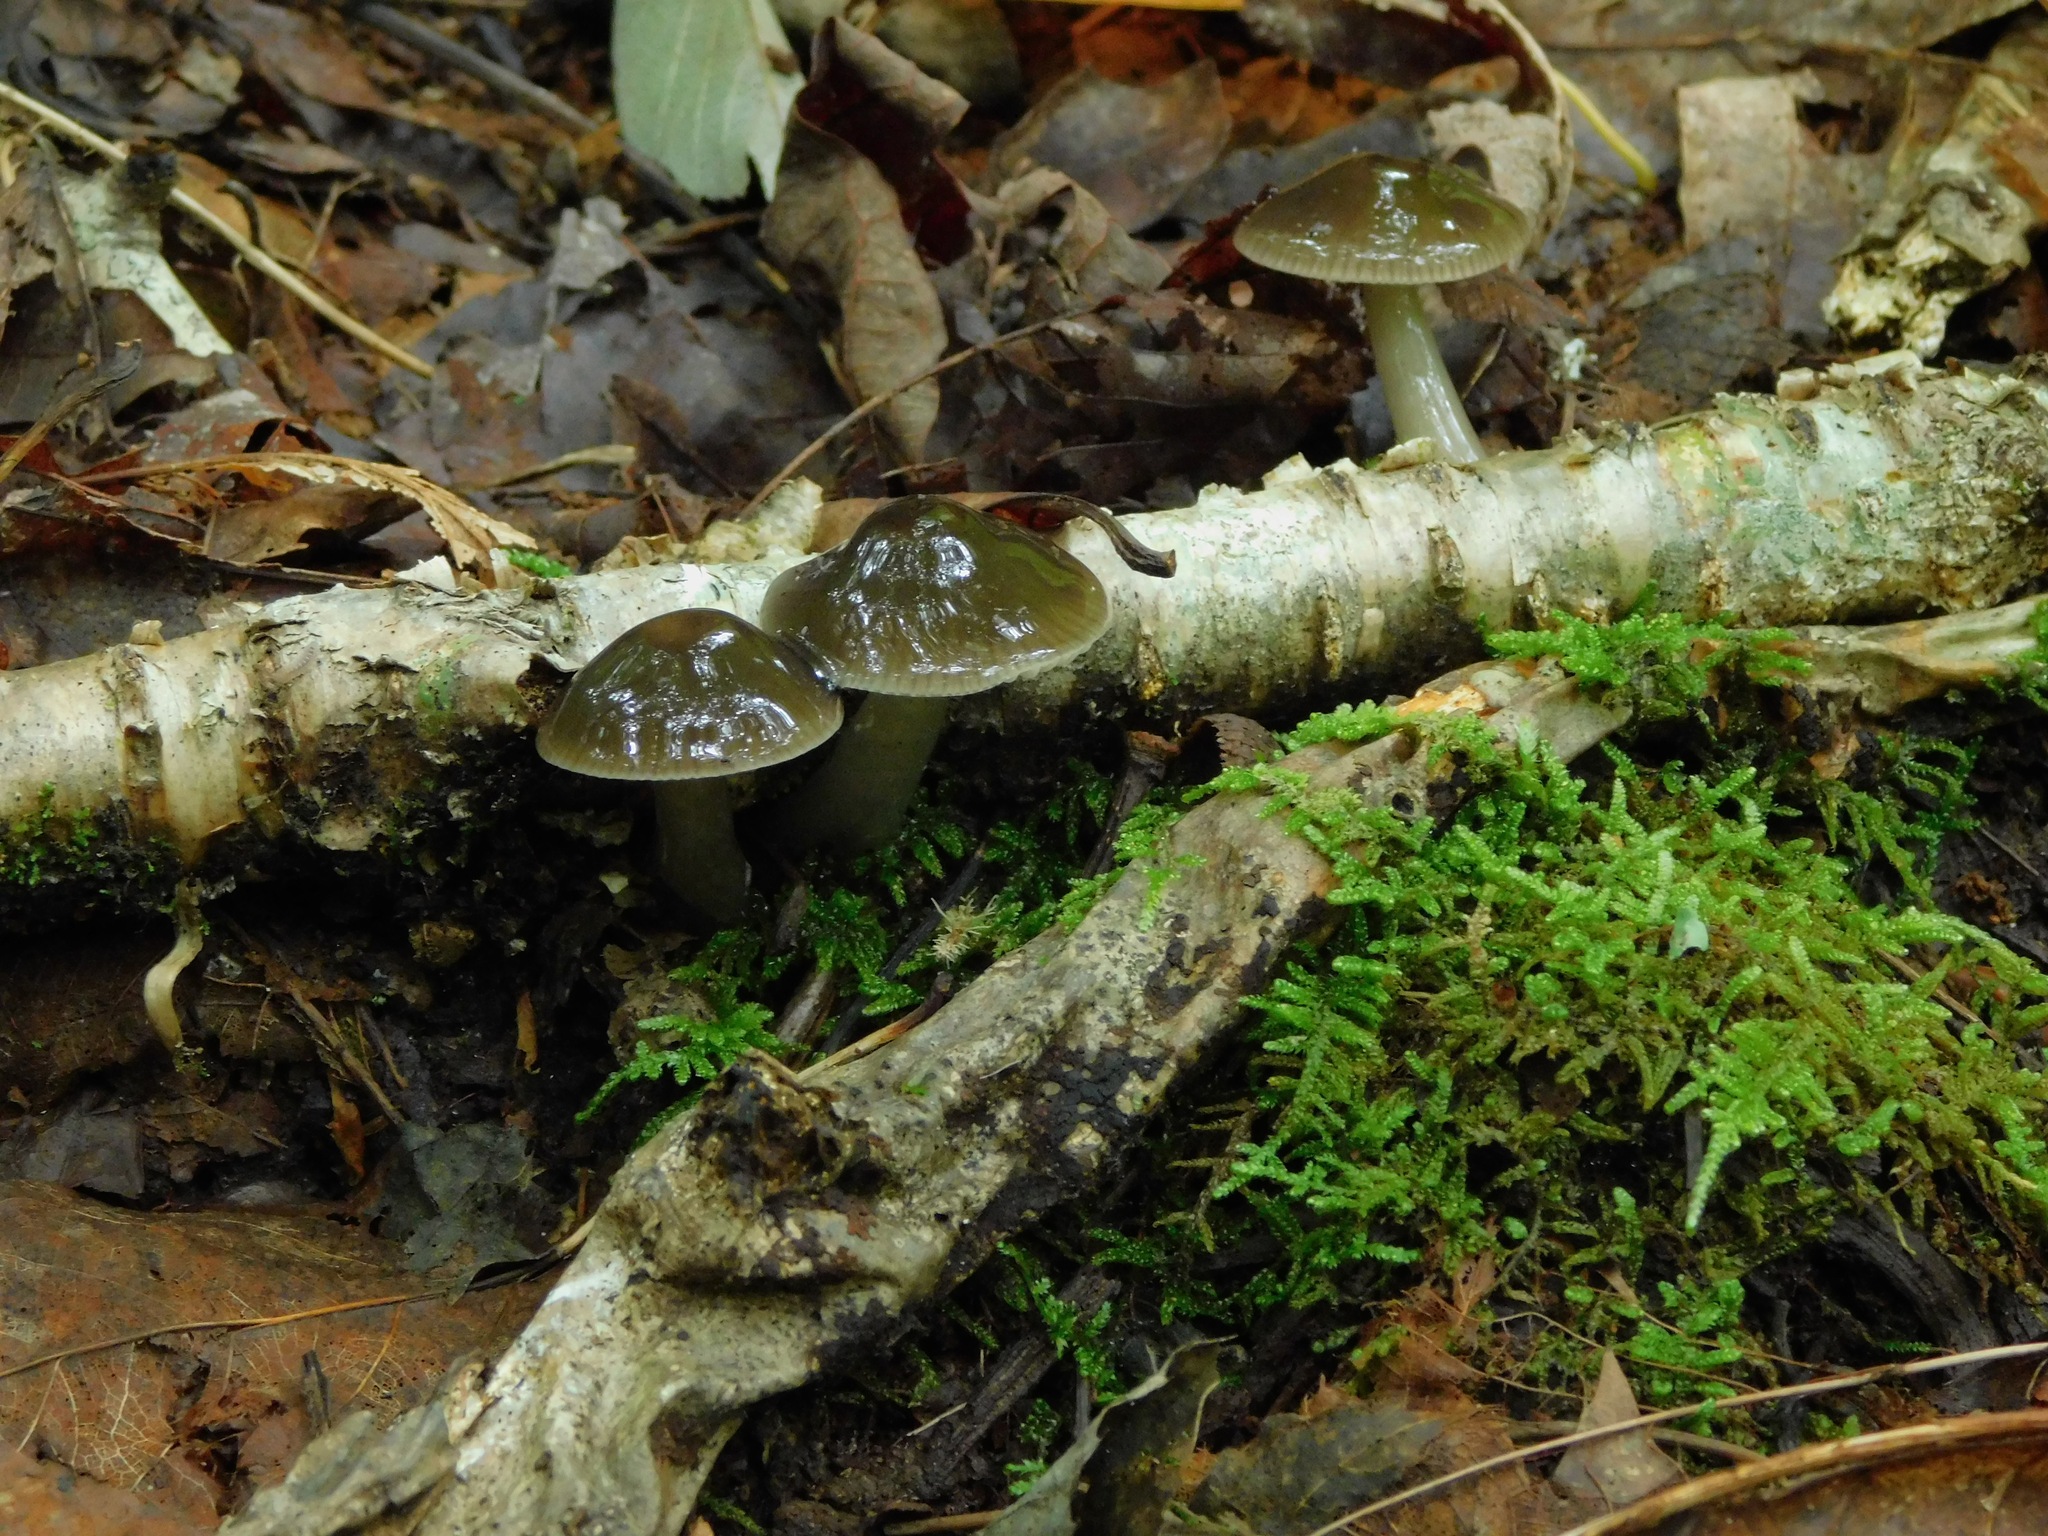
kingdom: Fungi
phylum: Basidiomycota
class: Agaricomycetes
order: Agaricales
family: Hygrophoraceae
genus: Gliophorus
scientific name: Gliophorus irrigatus
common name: Slimy waxcap
